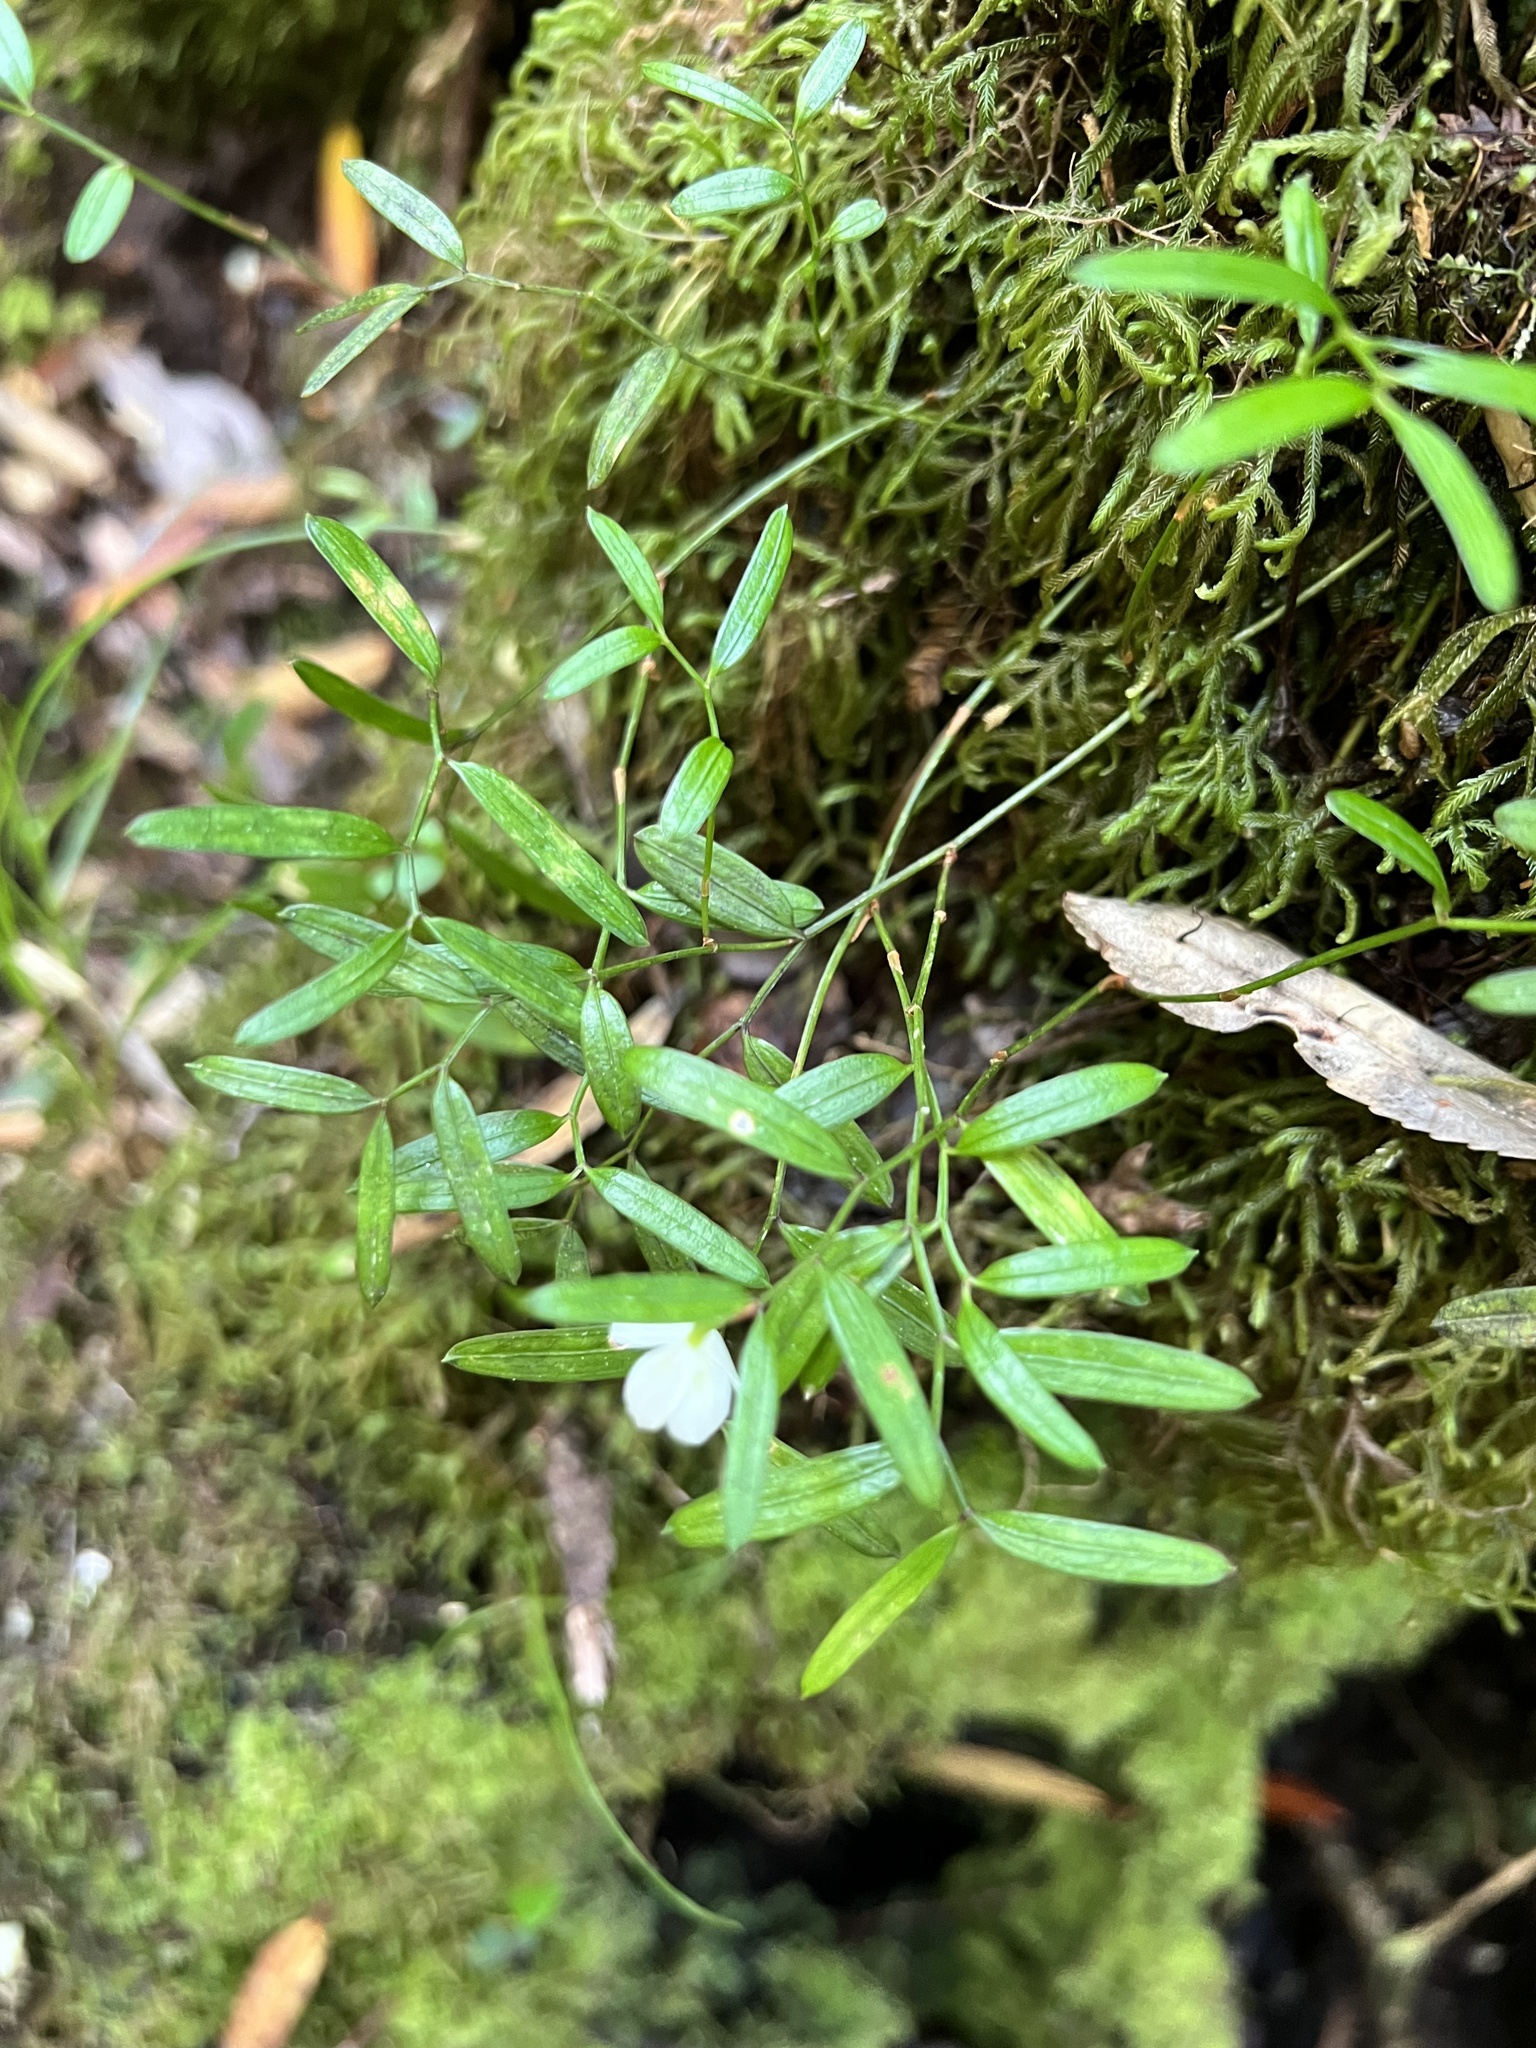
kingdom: Plantae
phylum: Tracheophyta
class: Liliopsida
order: Liliales
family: Alstroemeriaceae
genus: Luzuriaga
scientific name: Luzuriaga parviflora
